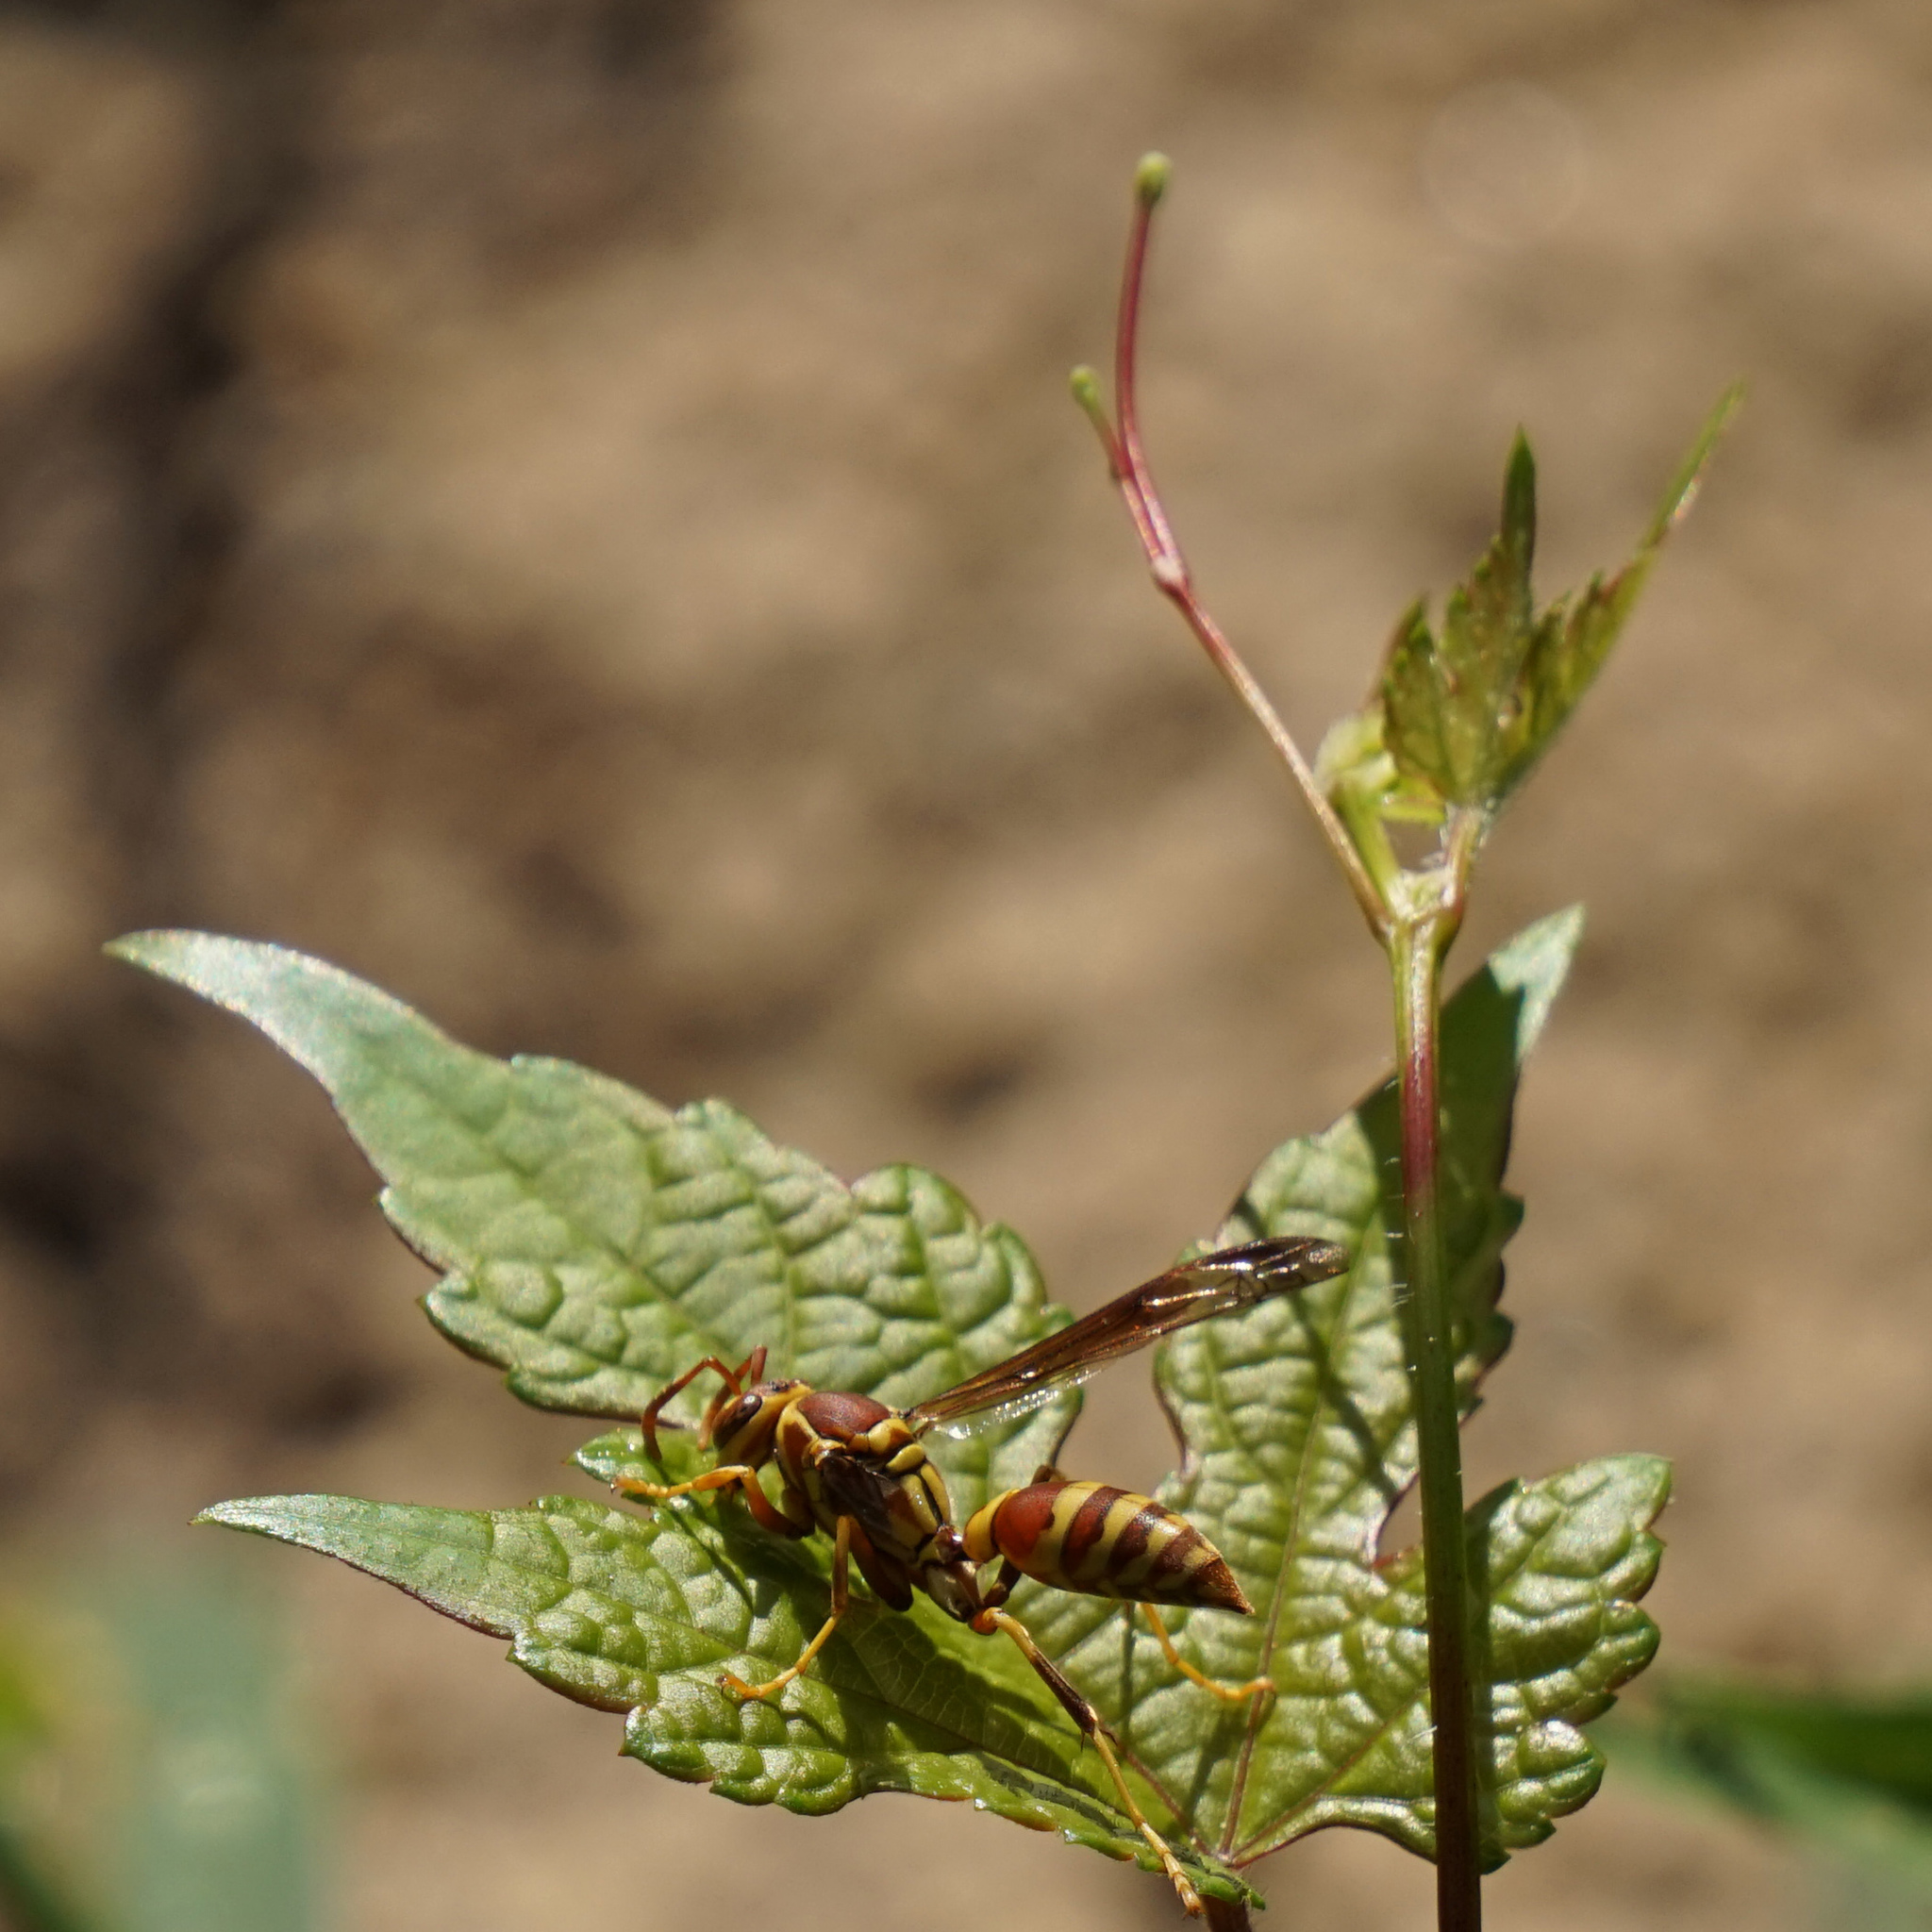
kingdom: Animalia
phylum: Arthropoda
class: Insecta
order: Hymenoptera
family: Eumenidae
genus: Polistes
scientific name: Polistes exclamans
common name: Paper wasp
